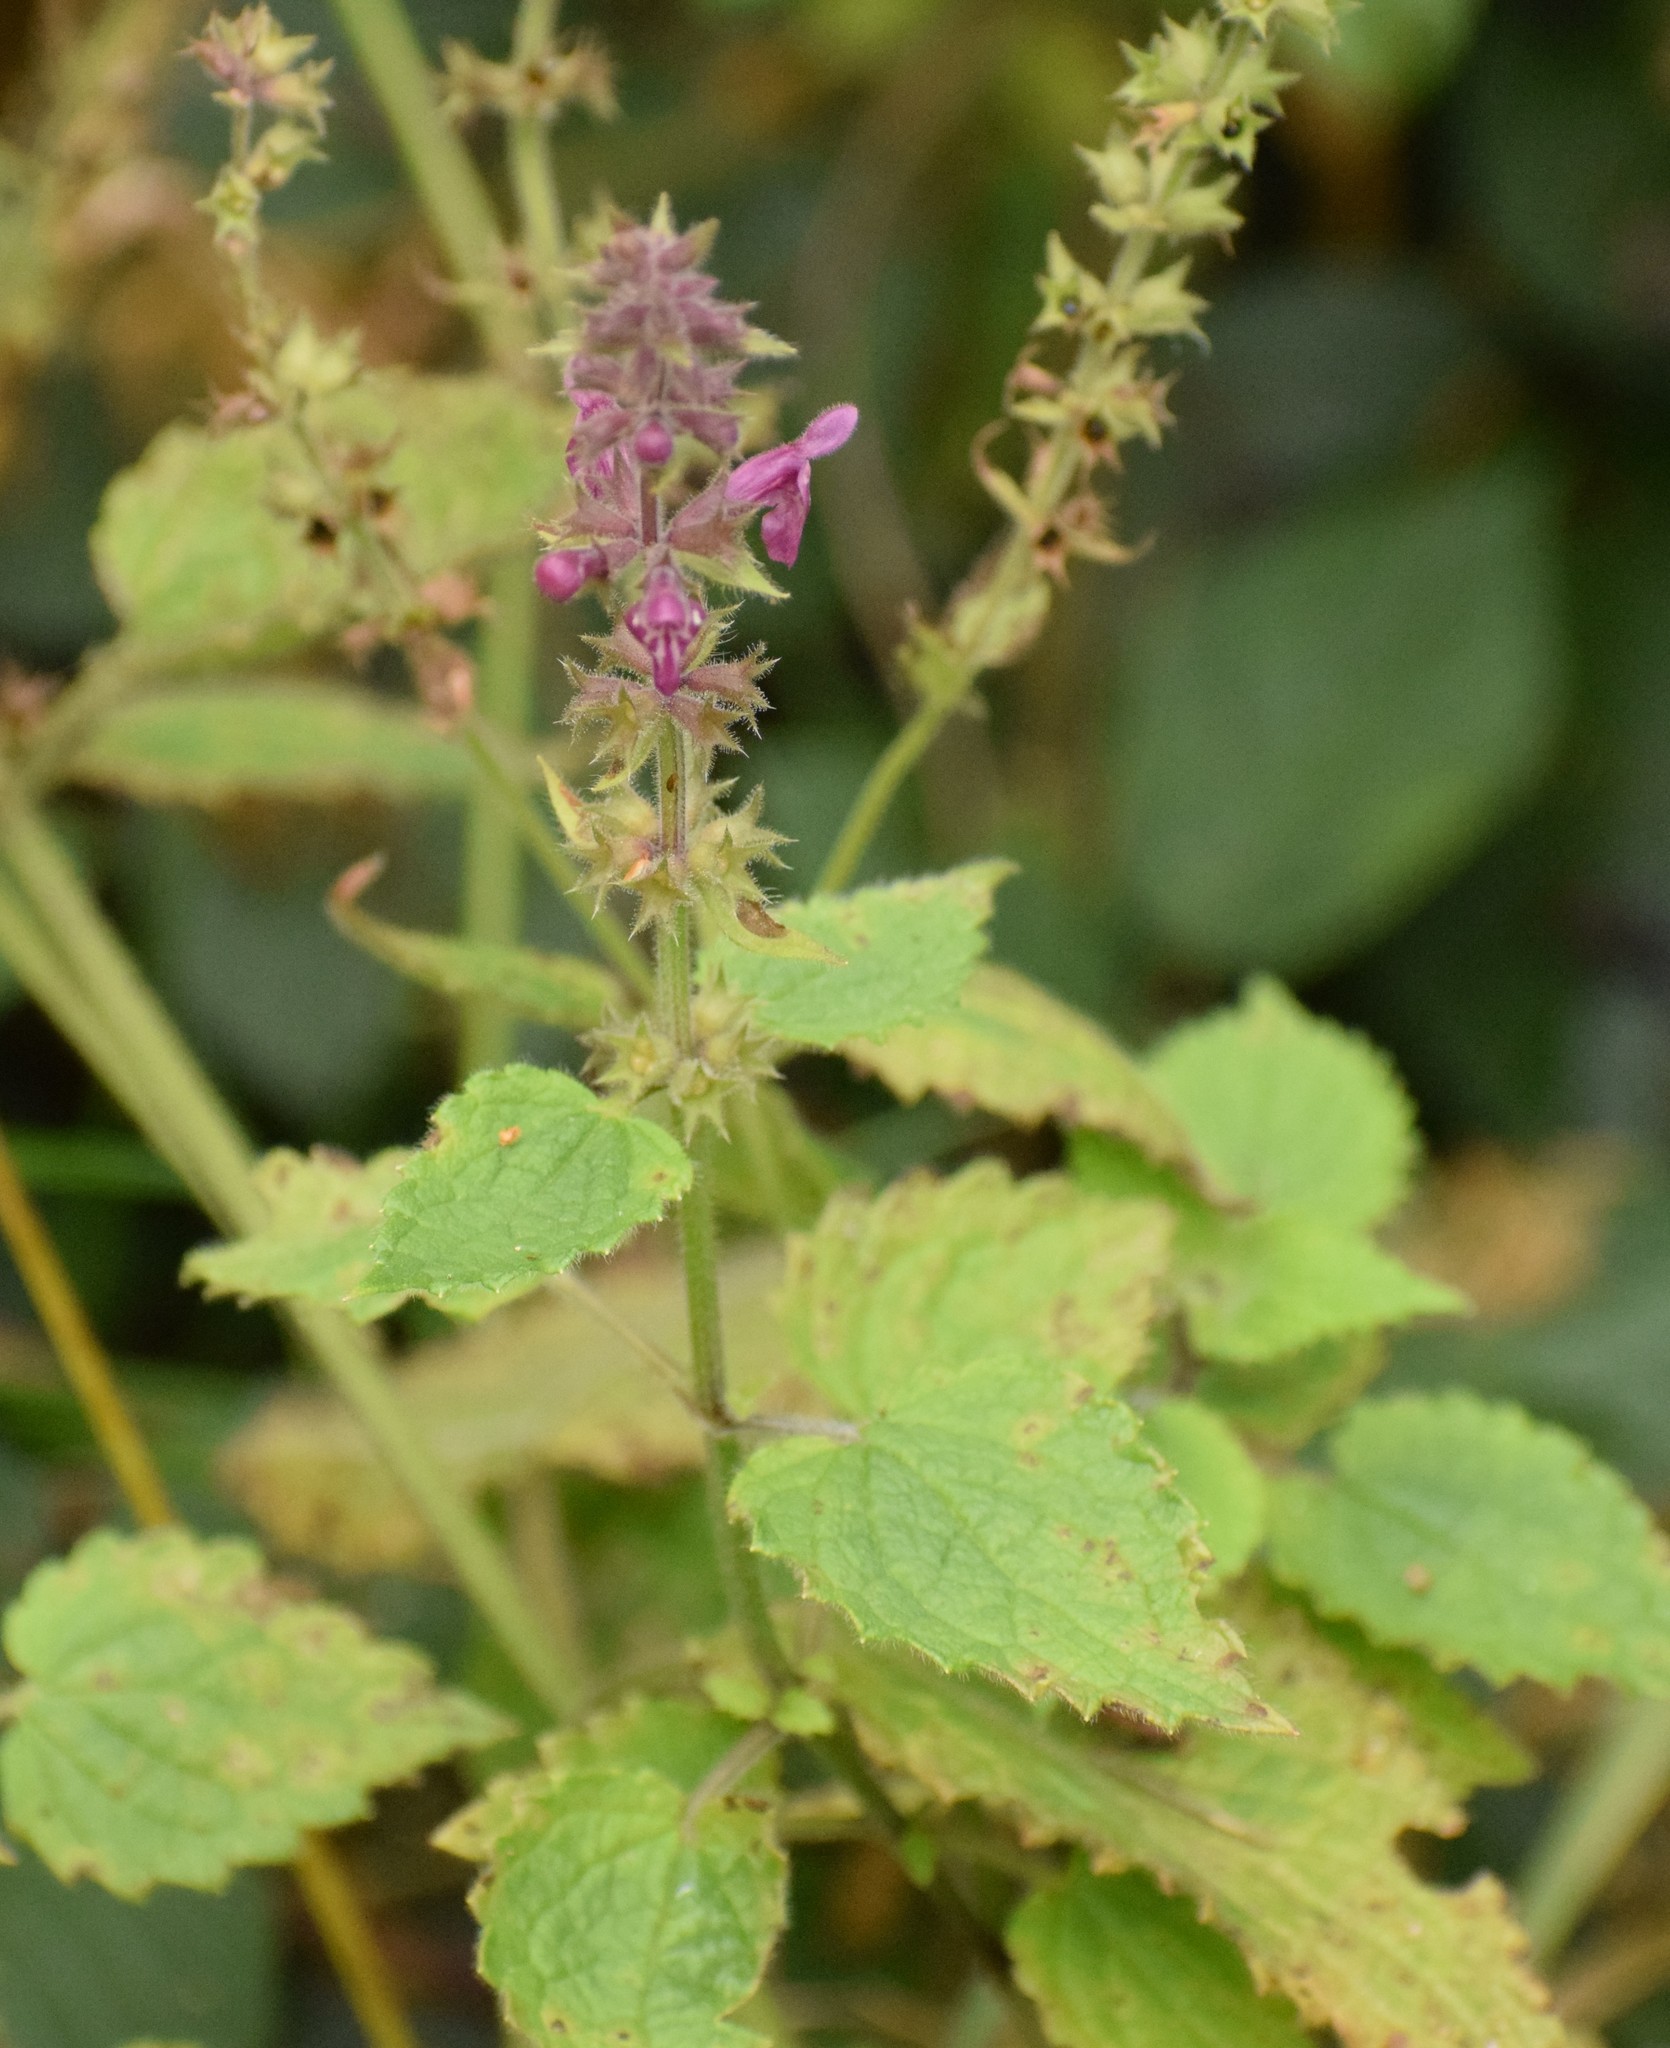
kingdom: Plantae
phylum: Tracheophyta
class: Magnoliopsida
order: Lamiales
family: Lamiaceae
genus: Stachys
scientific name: Stachys sylvatica
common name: Hedge woundwort
